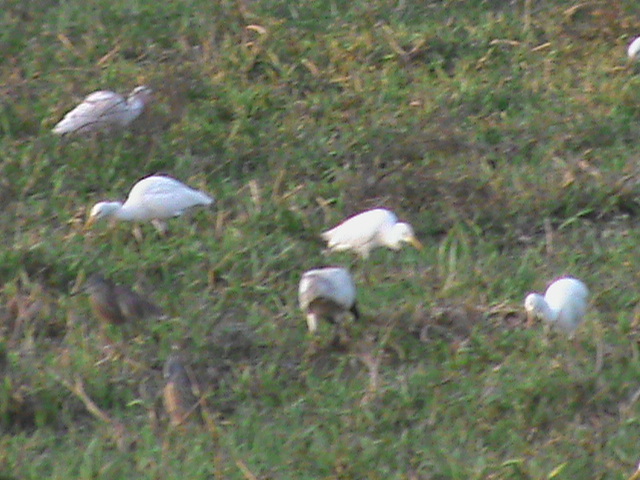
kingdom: Animalia
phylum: Chordata
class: Aves
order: Pelecaniformes
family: Threskiornithidae
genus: Threskiornis
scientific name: Threskiornis melanocephalus
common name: Black-headed ibis
